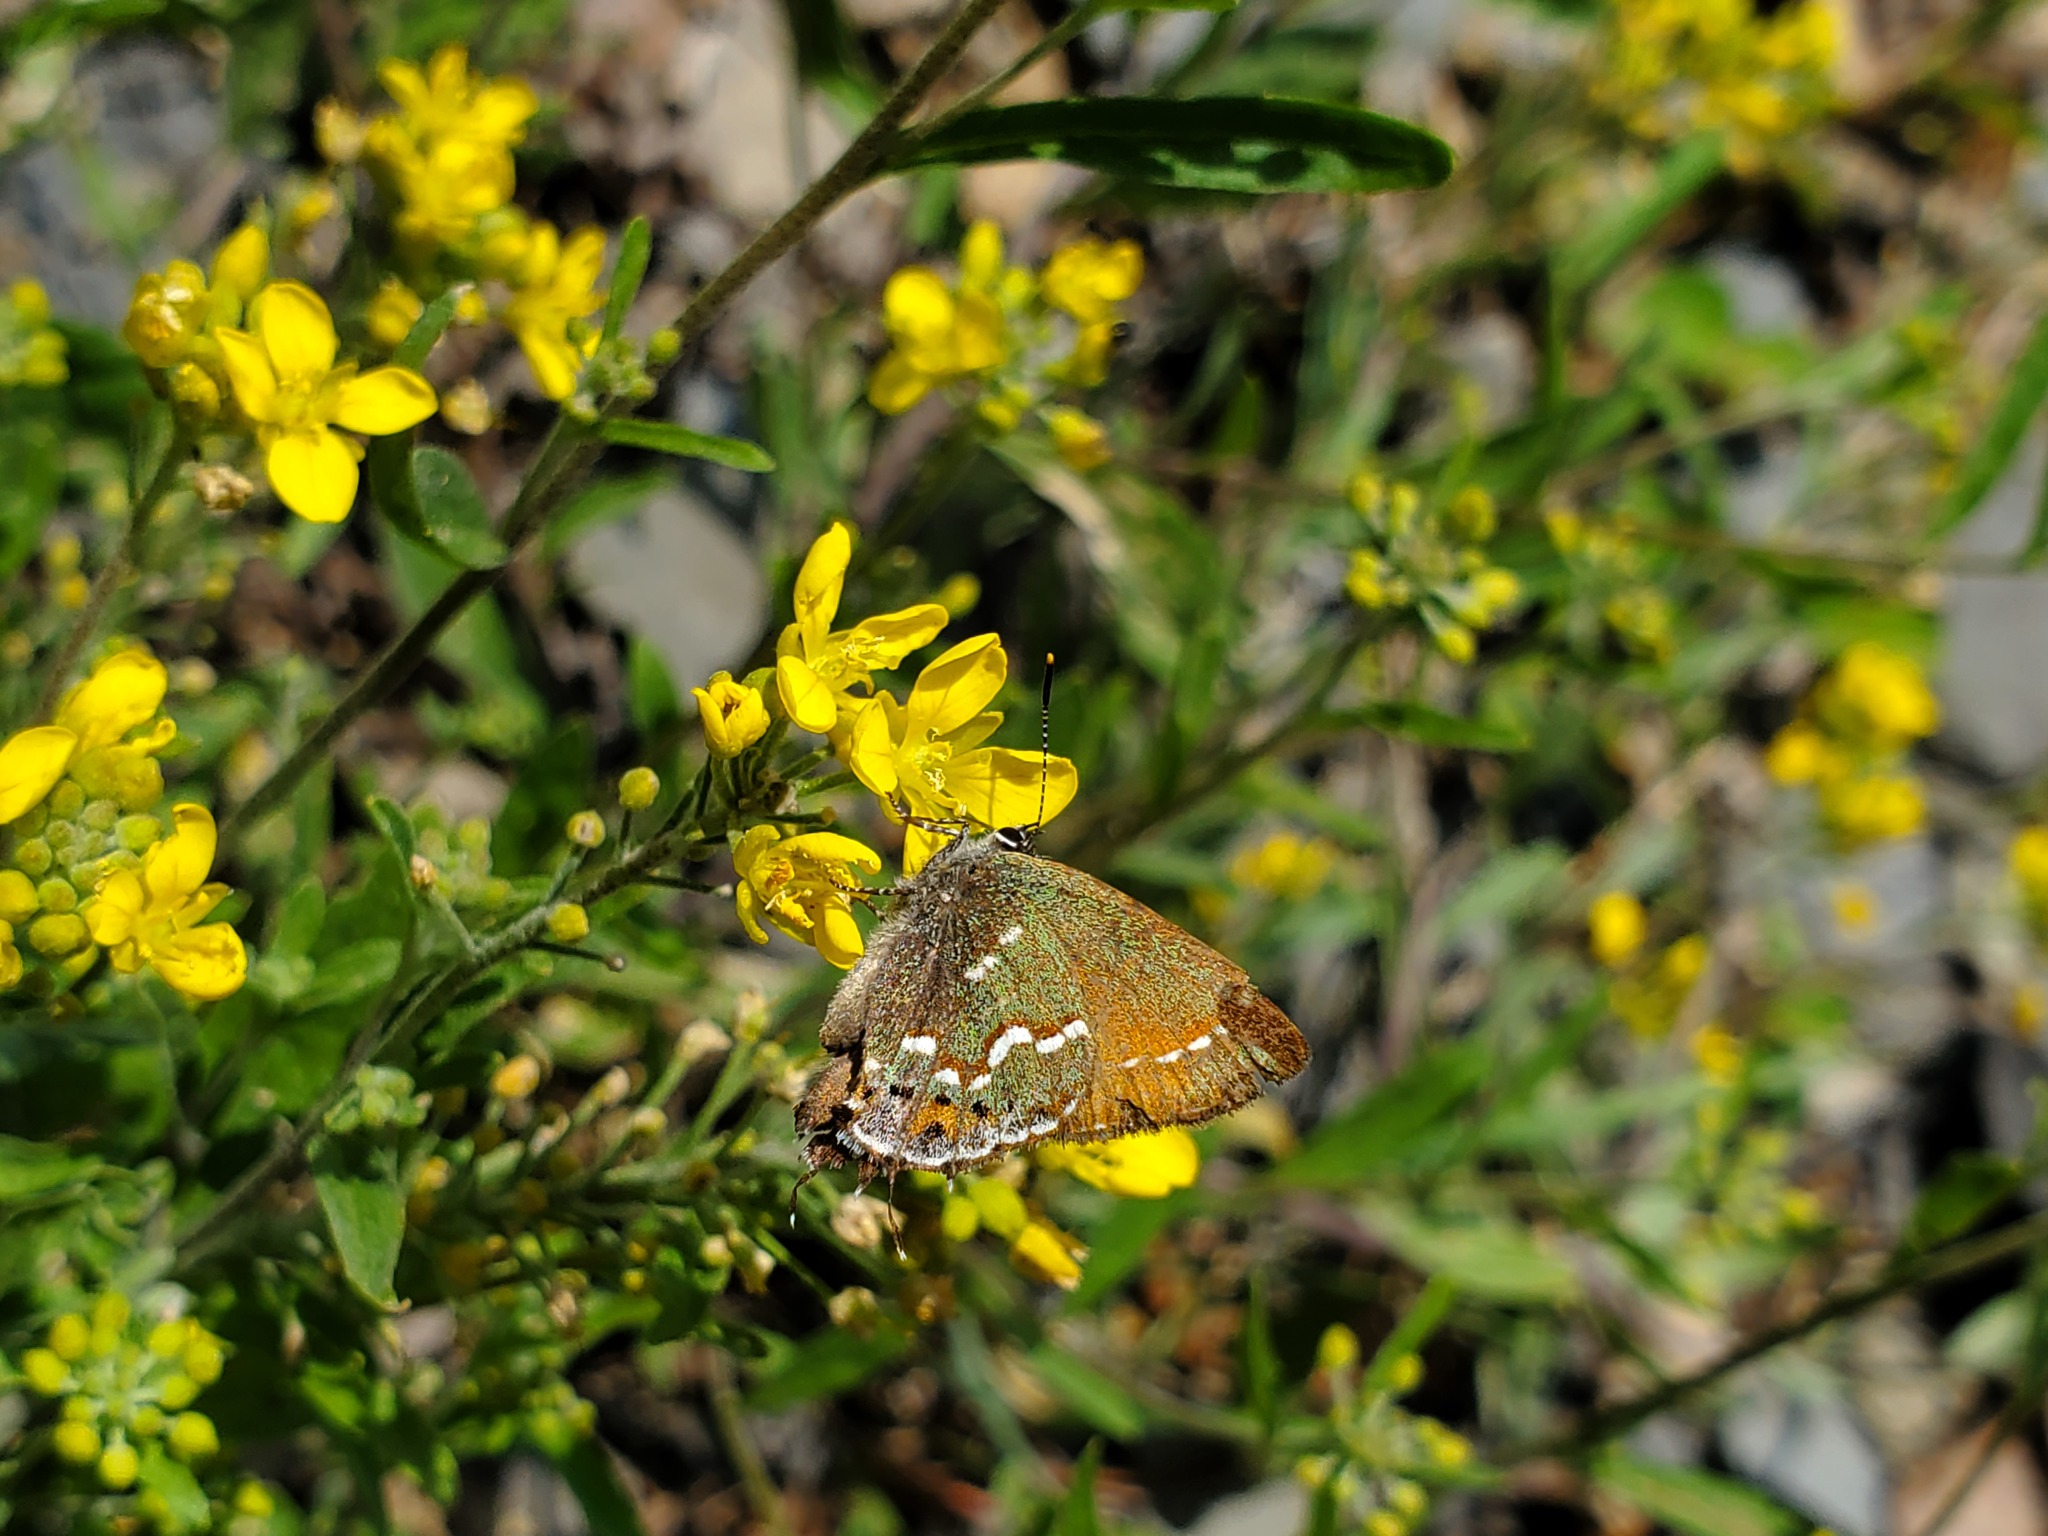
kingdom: Animalia
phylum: Arthropoda
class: Insecta
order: Lepidoptera
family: Lycaenidae
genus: Mitoura
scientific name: Mitoura gryneus
